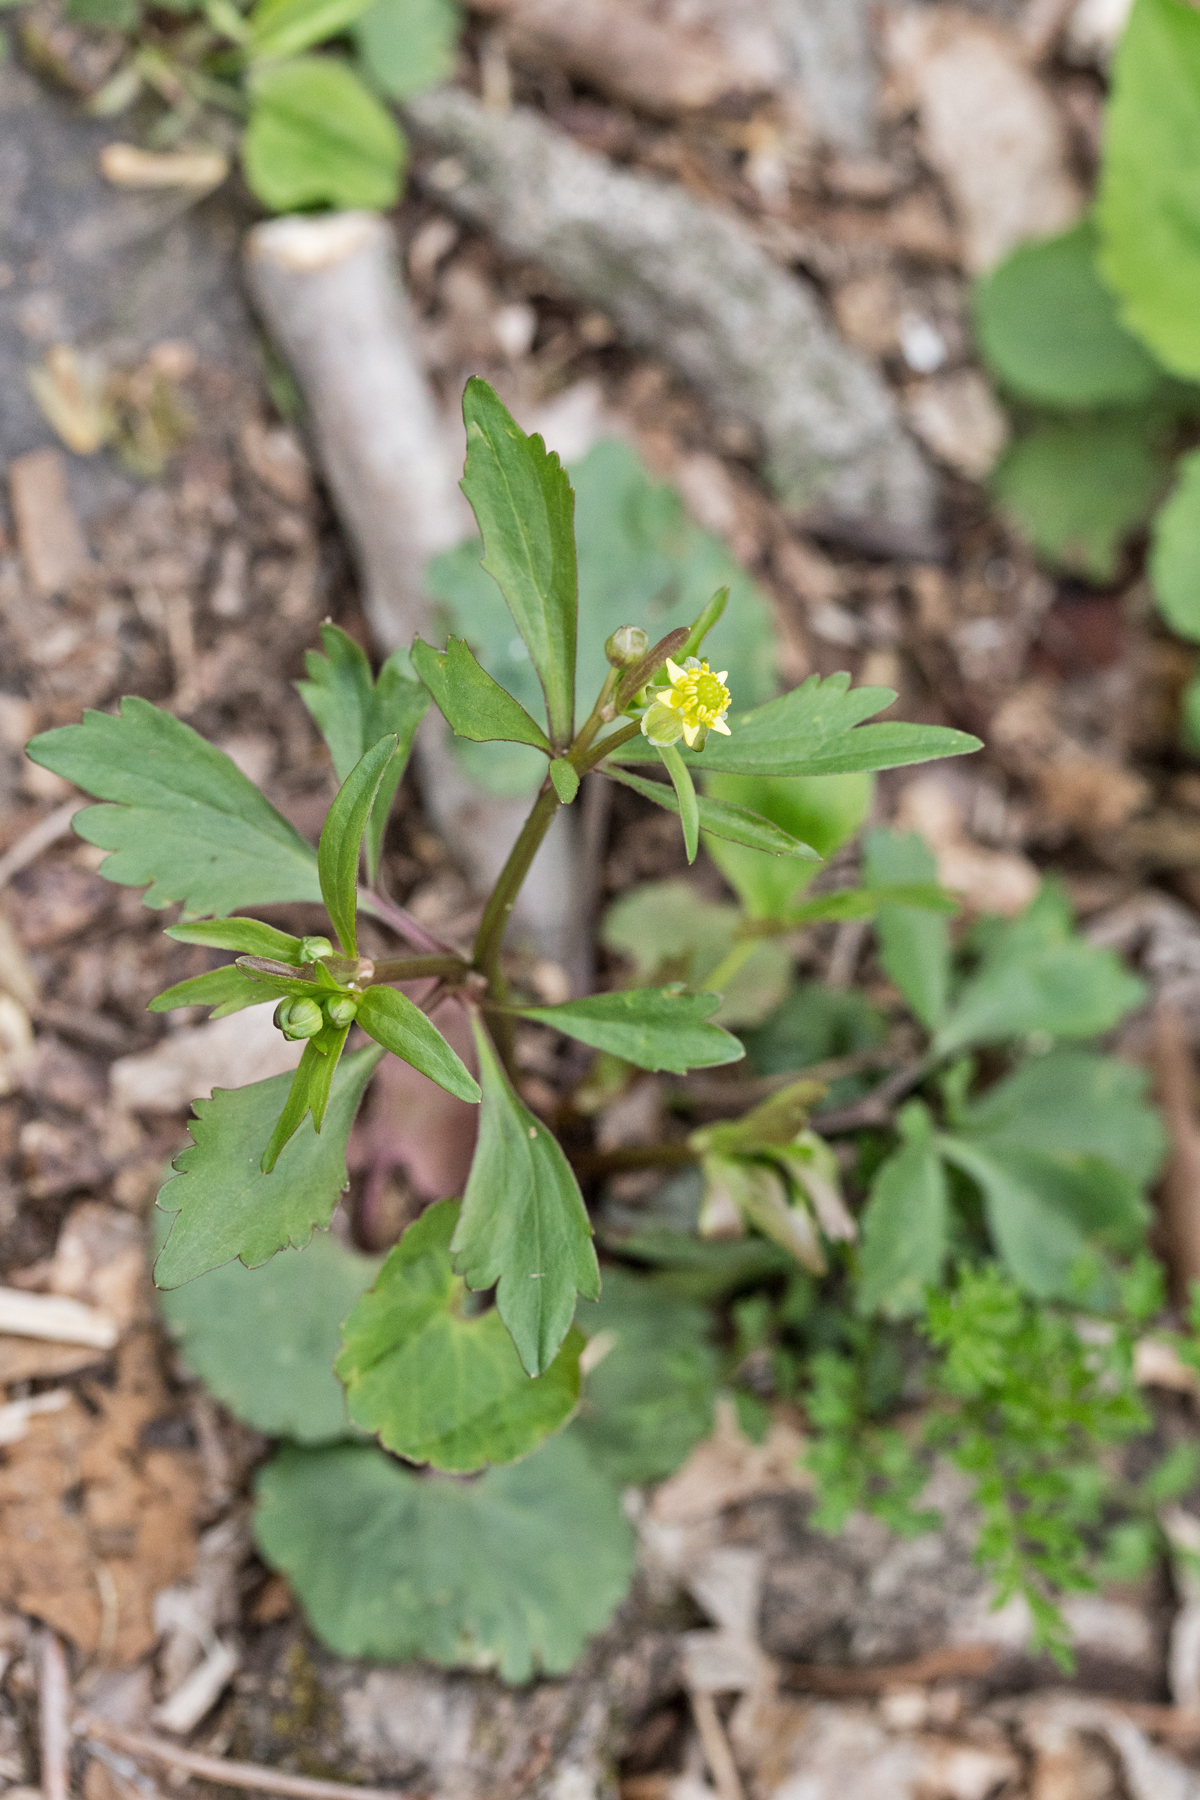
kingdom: Plantae
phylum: Tracheophyta
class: Magnoliopsida
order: Ranunculales
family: Ranunculaceae
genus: Ranunculus
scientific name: Ranunculus abortivus
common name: Early wood buttercup
